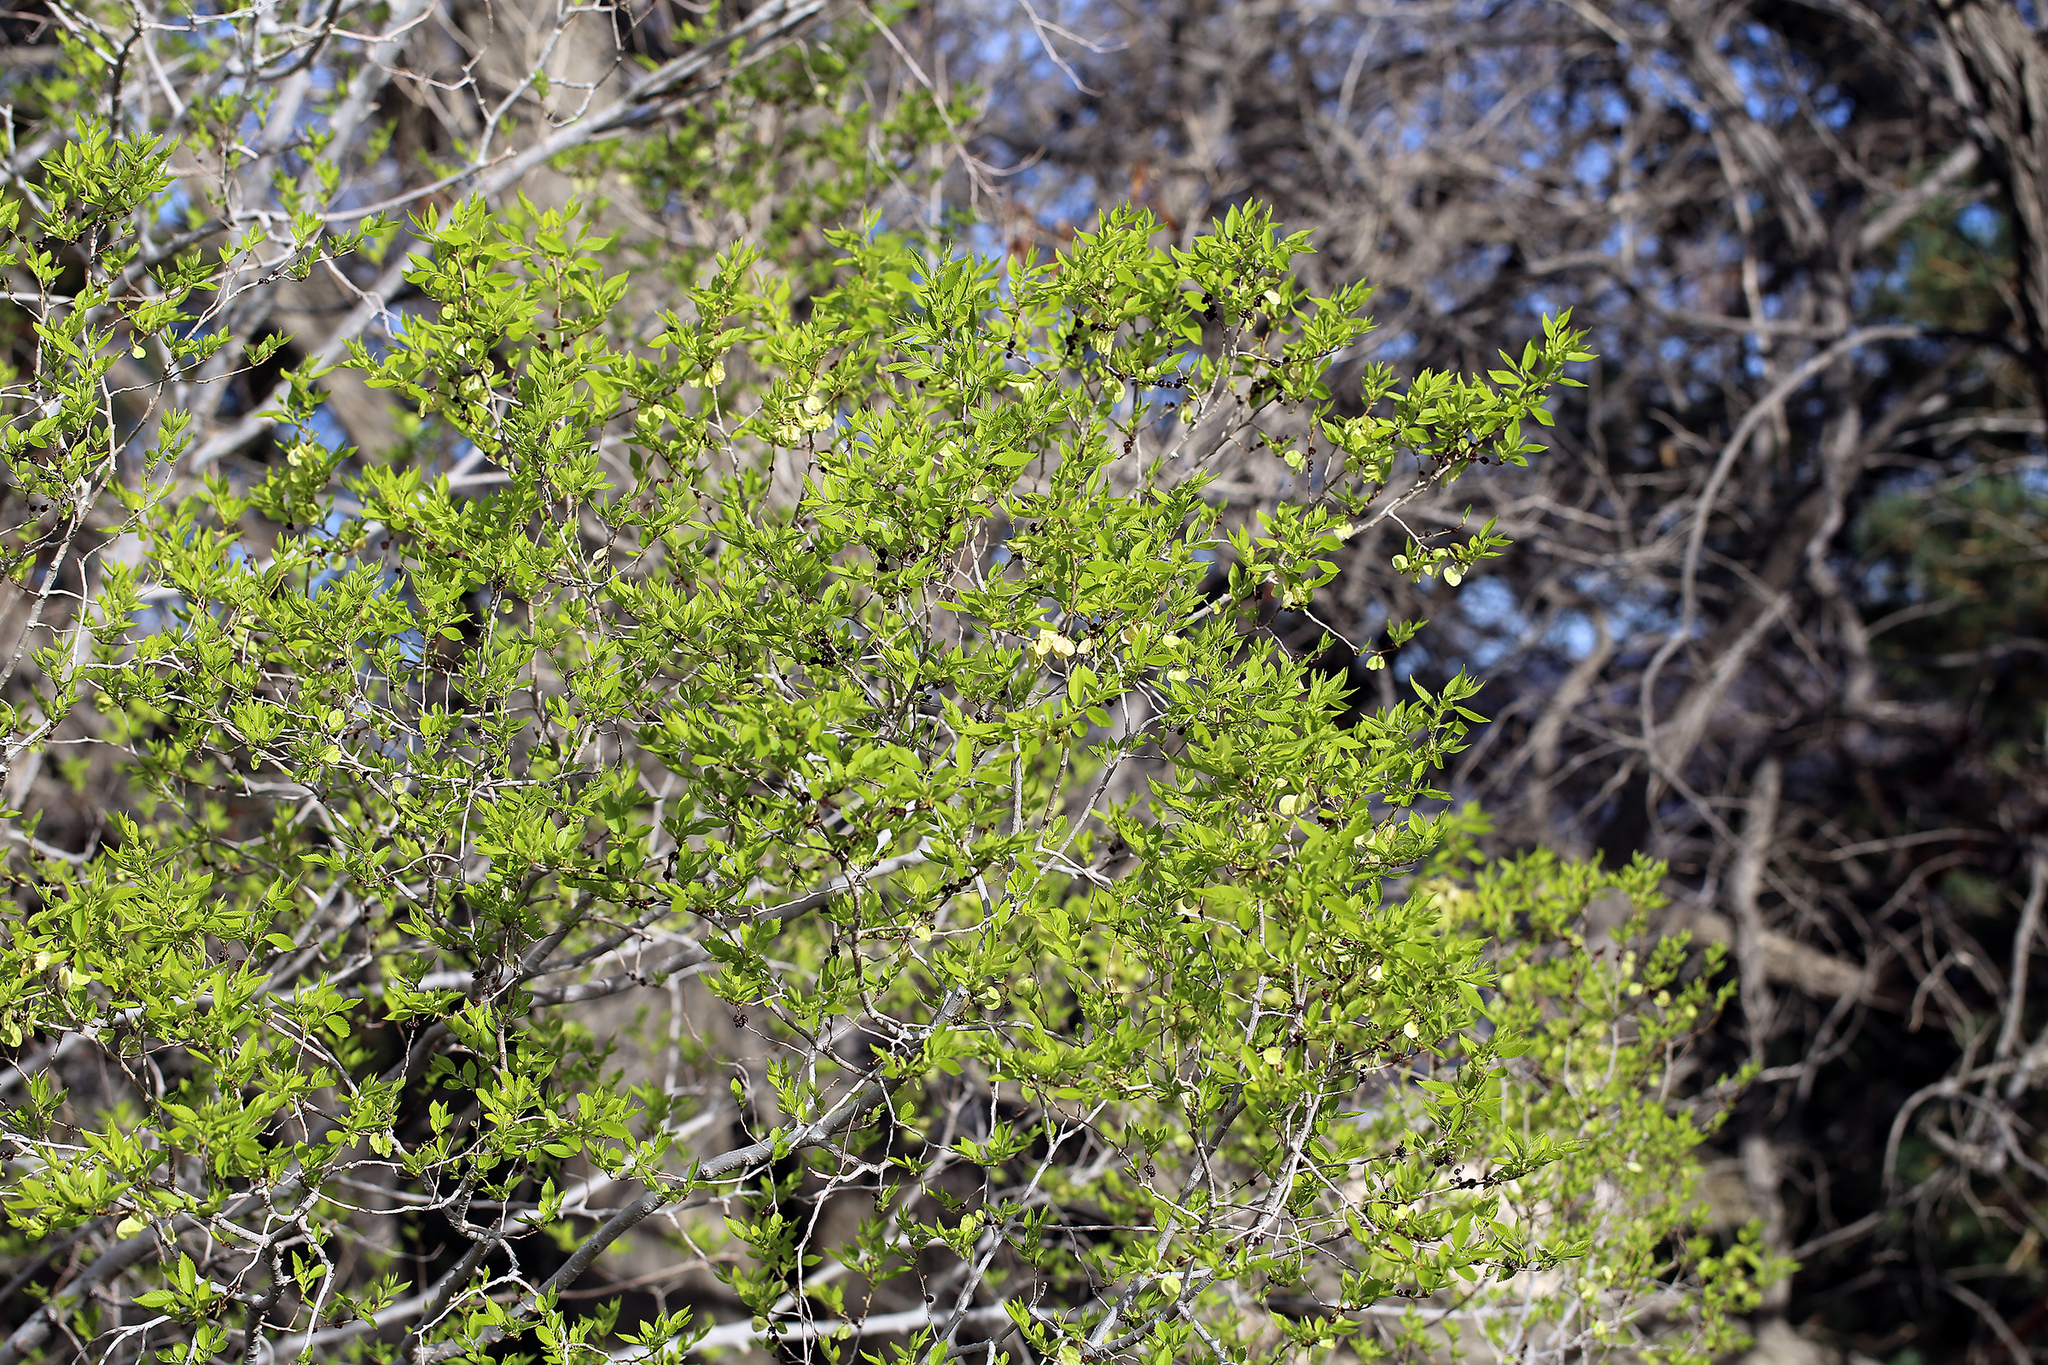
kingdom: Plantae
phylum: Tracheophyta
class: Magnoliopsida
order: Rosales
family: Ulmaceae
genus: Ulmus
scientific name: Ulmus pumila
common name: Siberian elm
